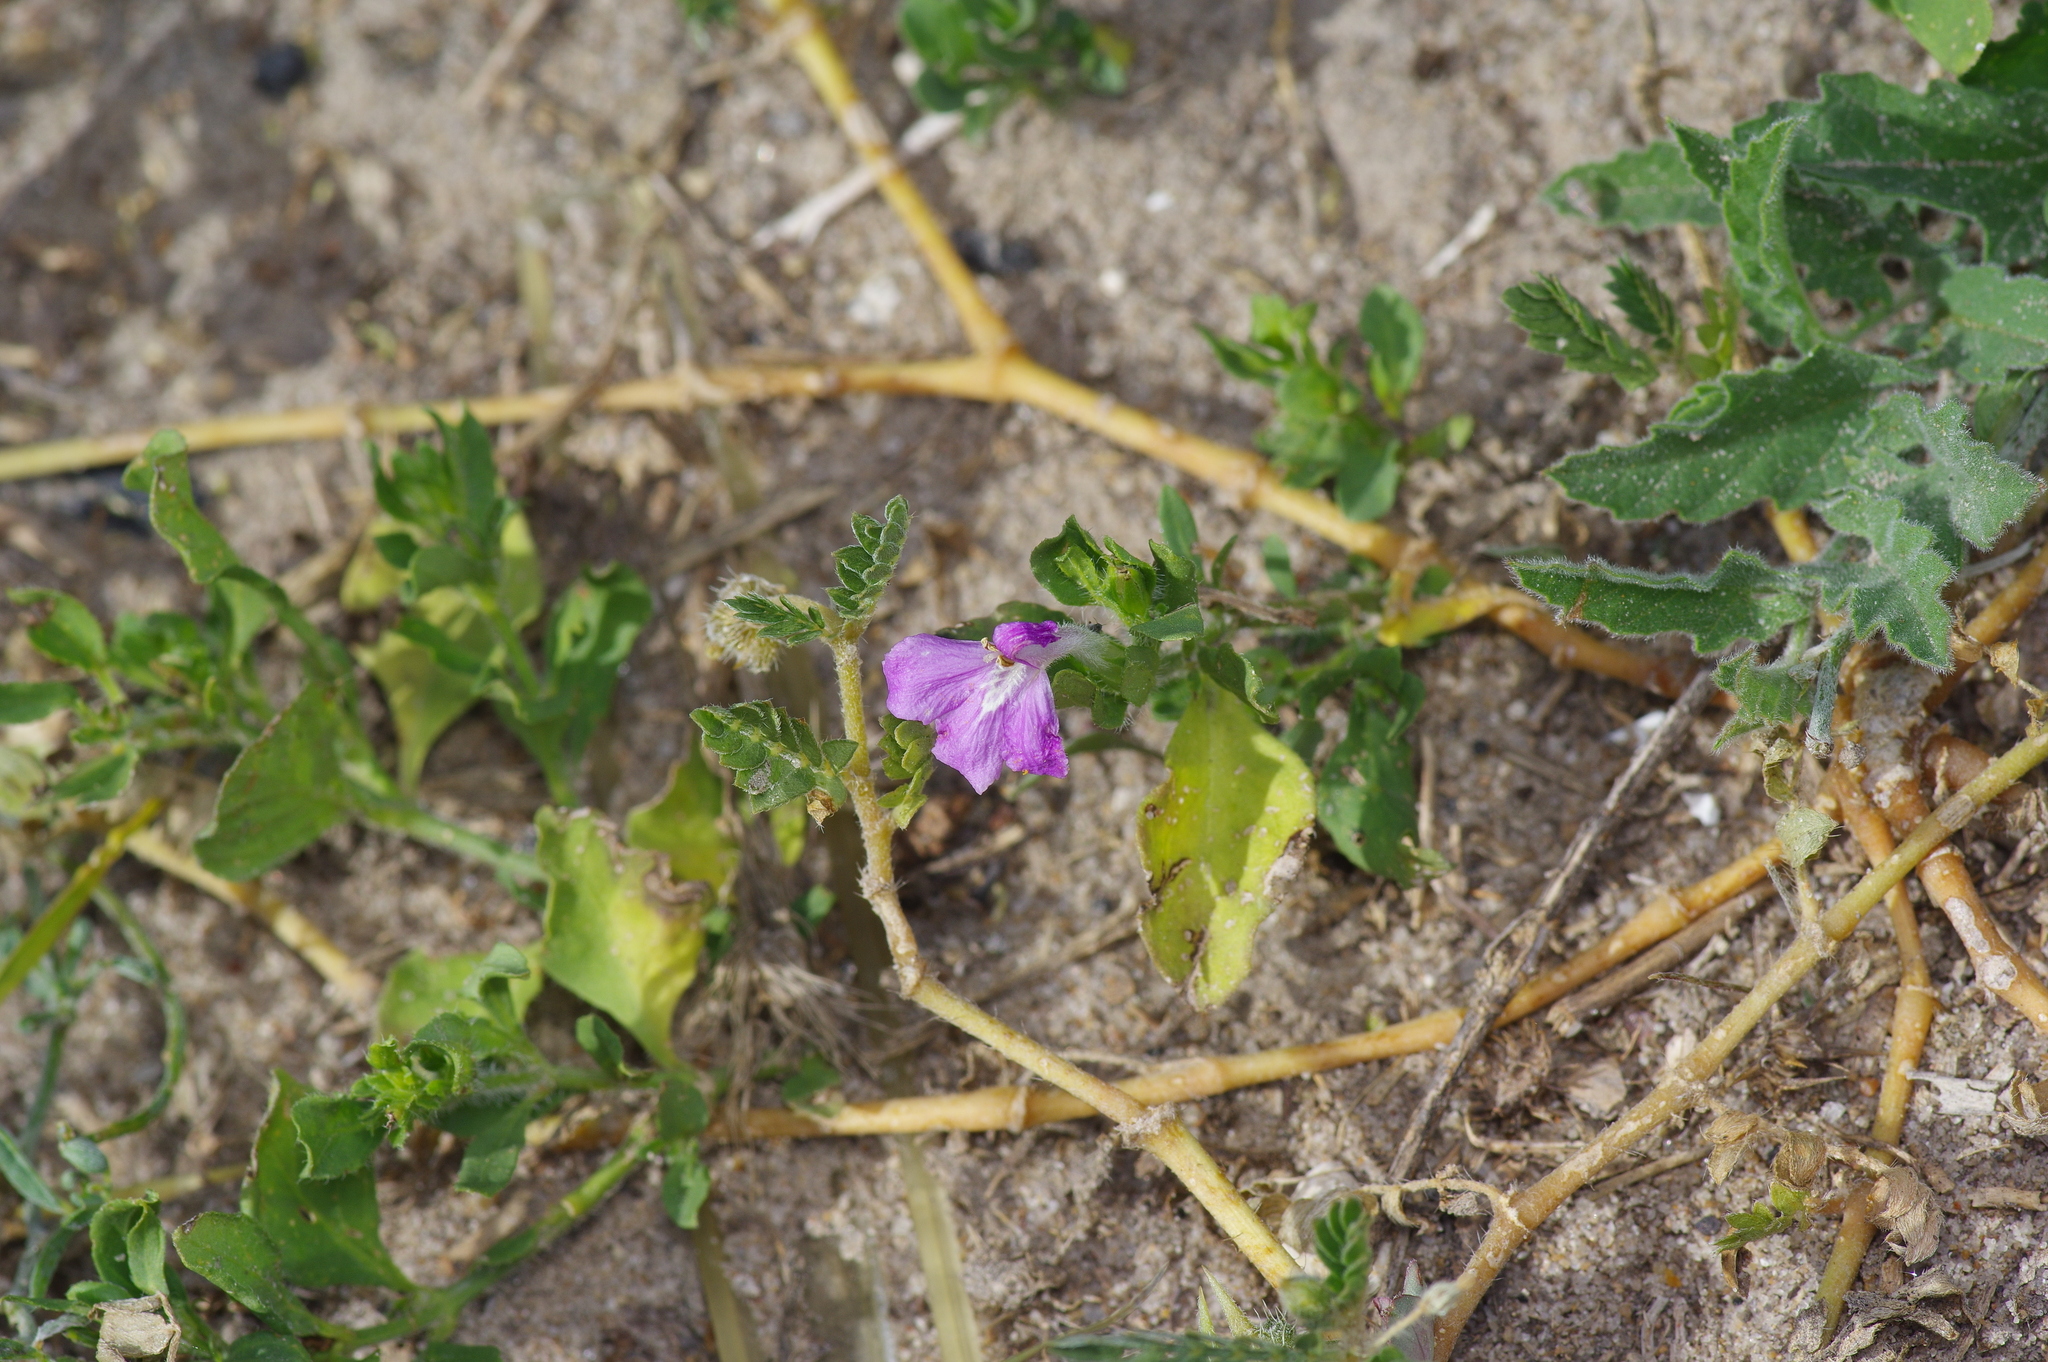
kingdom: Plantae
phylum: Tracheophyta
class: Magnoliopsida
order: Lamiales
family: Acanthaceae
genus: Justicia
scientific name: Justicia pilosella
